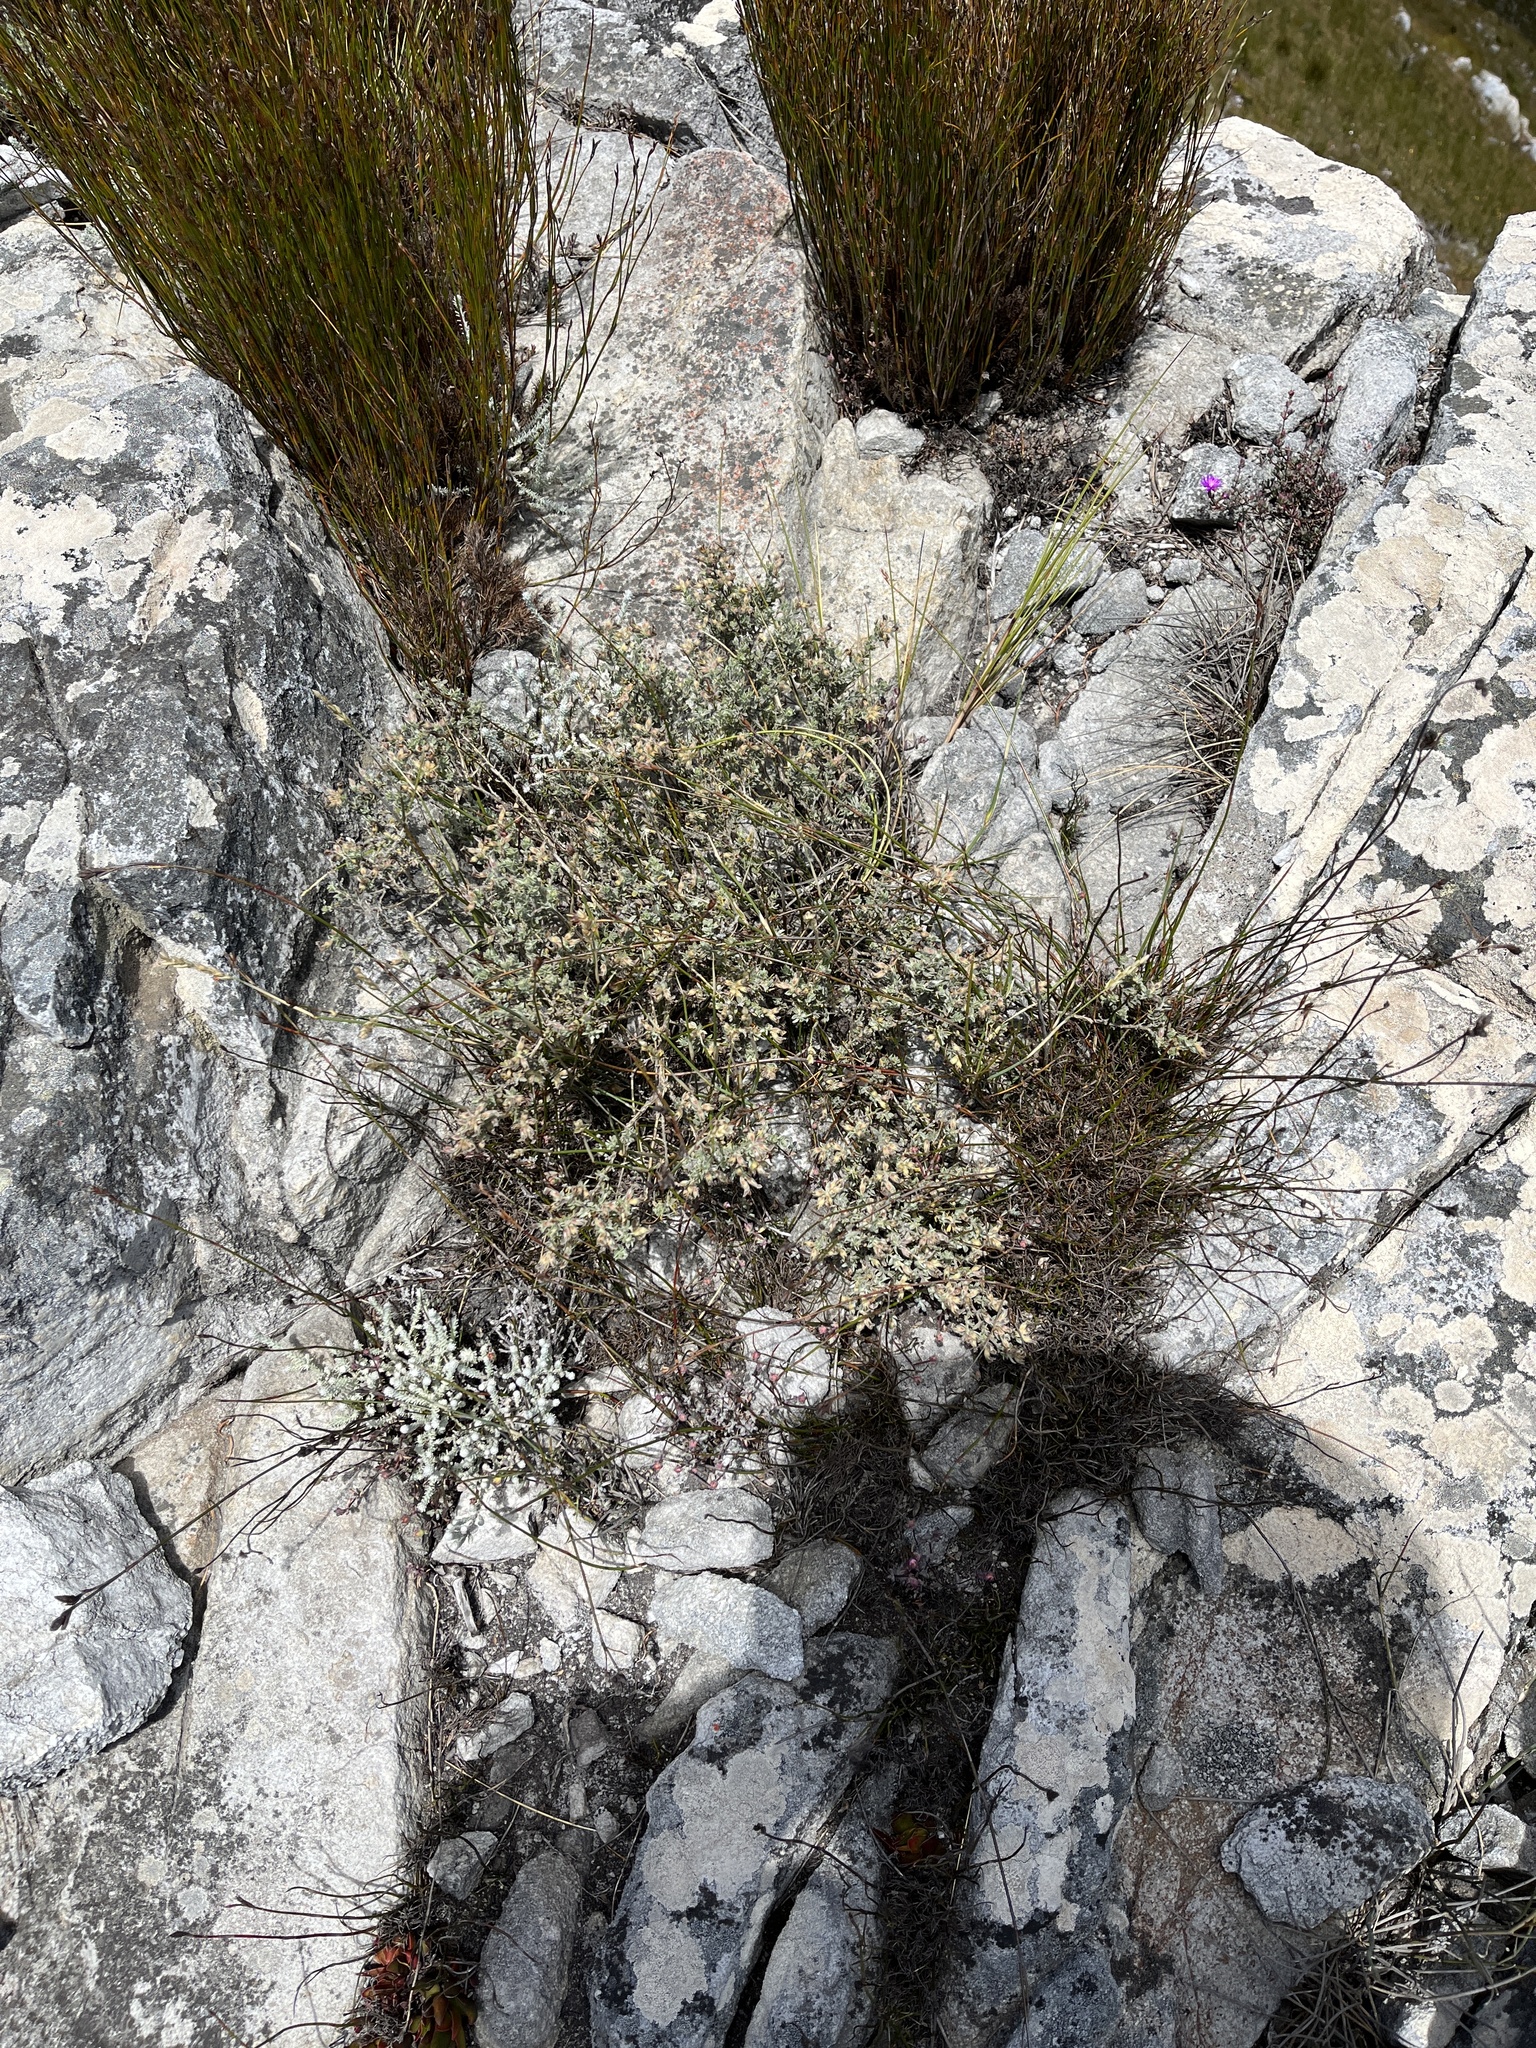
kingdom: Plantae
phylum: Tracheophyta
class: Magnoliopsida
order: Fabales
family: Fabaceae
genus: Aspalathus
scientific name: Aspalathus cytisoides
